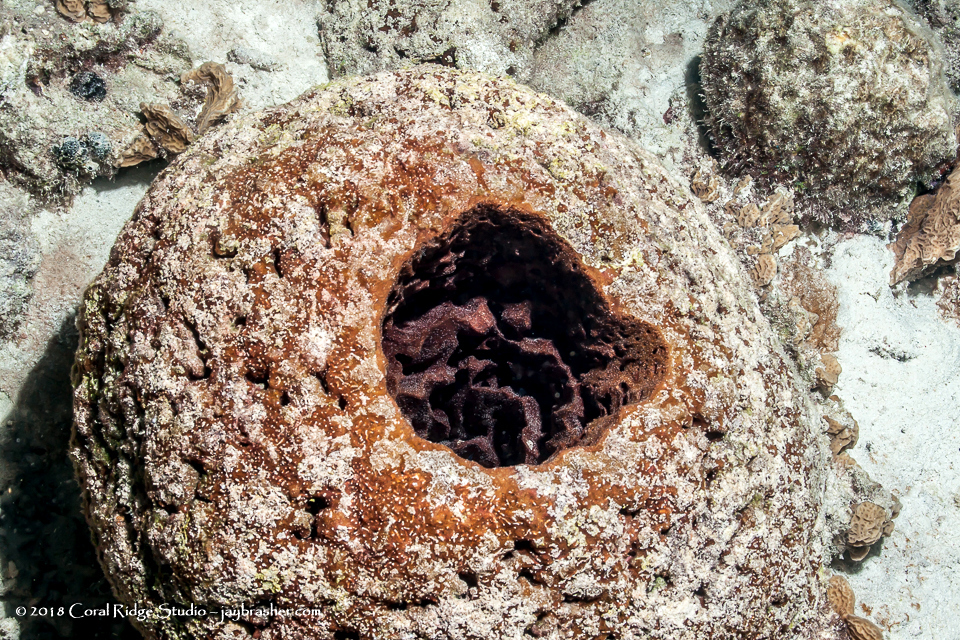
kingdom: Animalia
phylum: Porifera
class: Demospongiae
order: Biemnida
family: Biemnidae
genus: Neofibularia
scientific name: Neofibularia nolitangere
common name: Do-not-touch-me sponge
